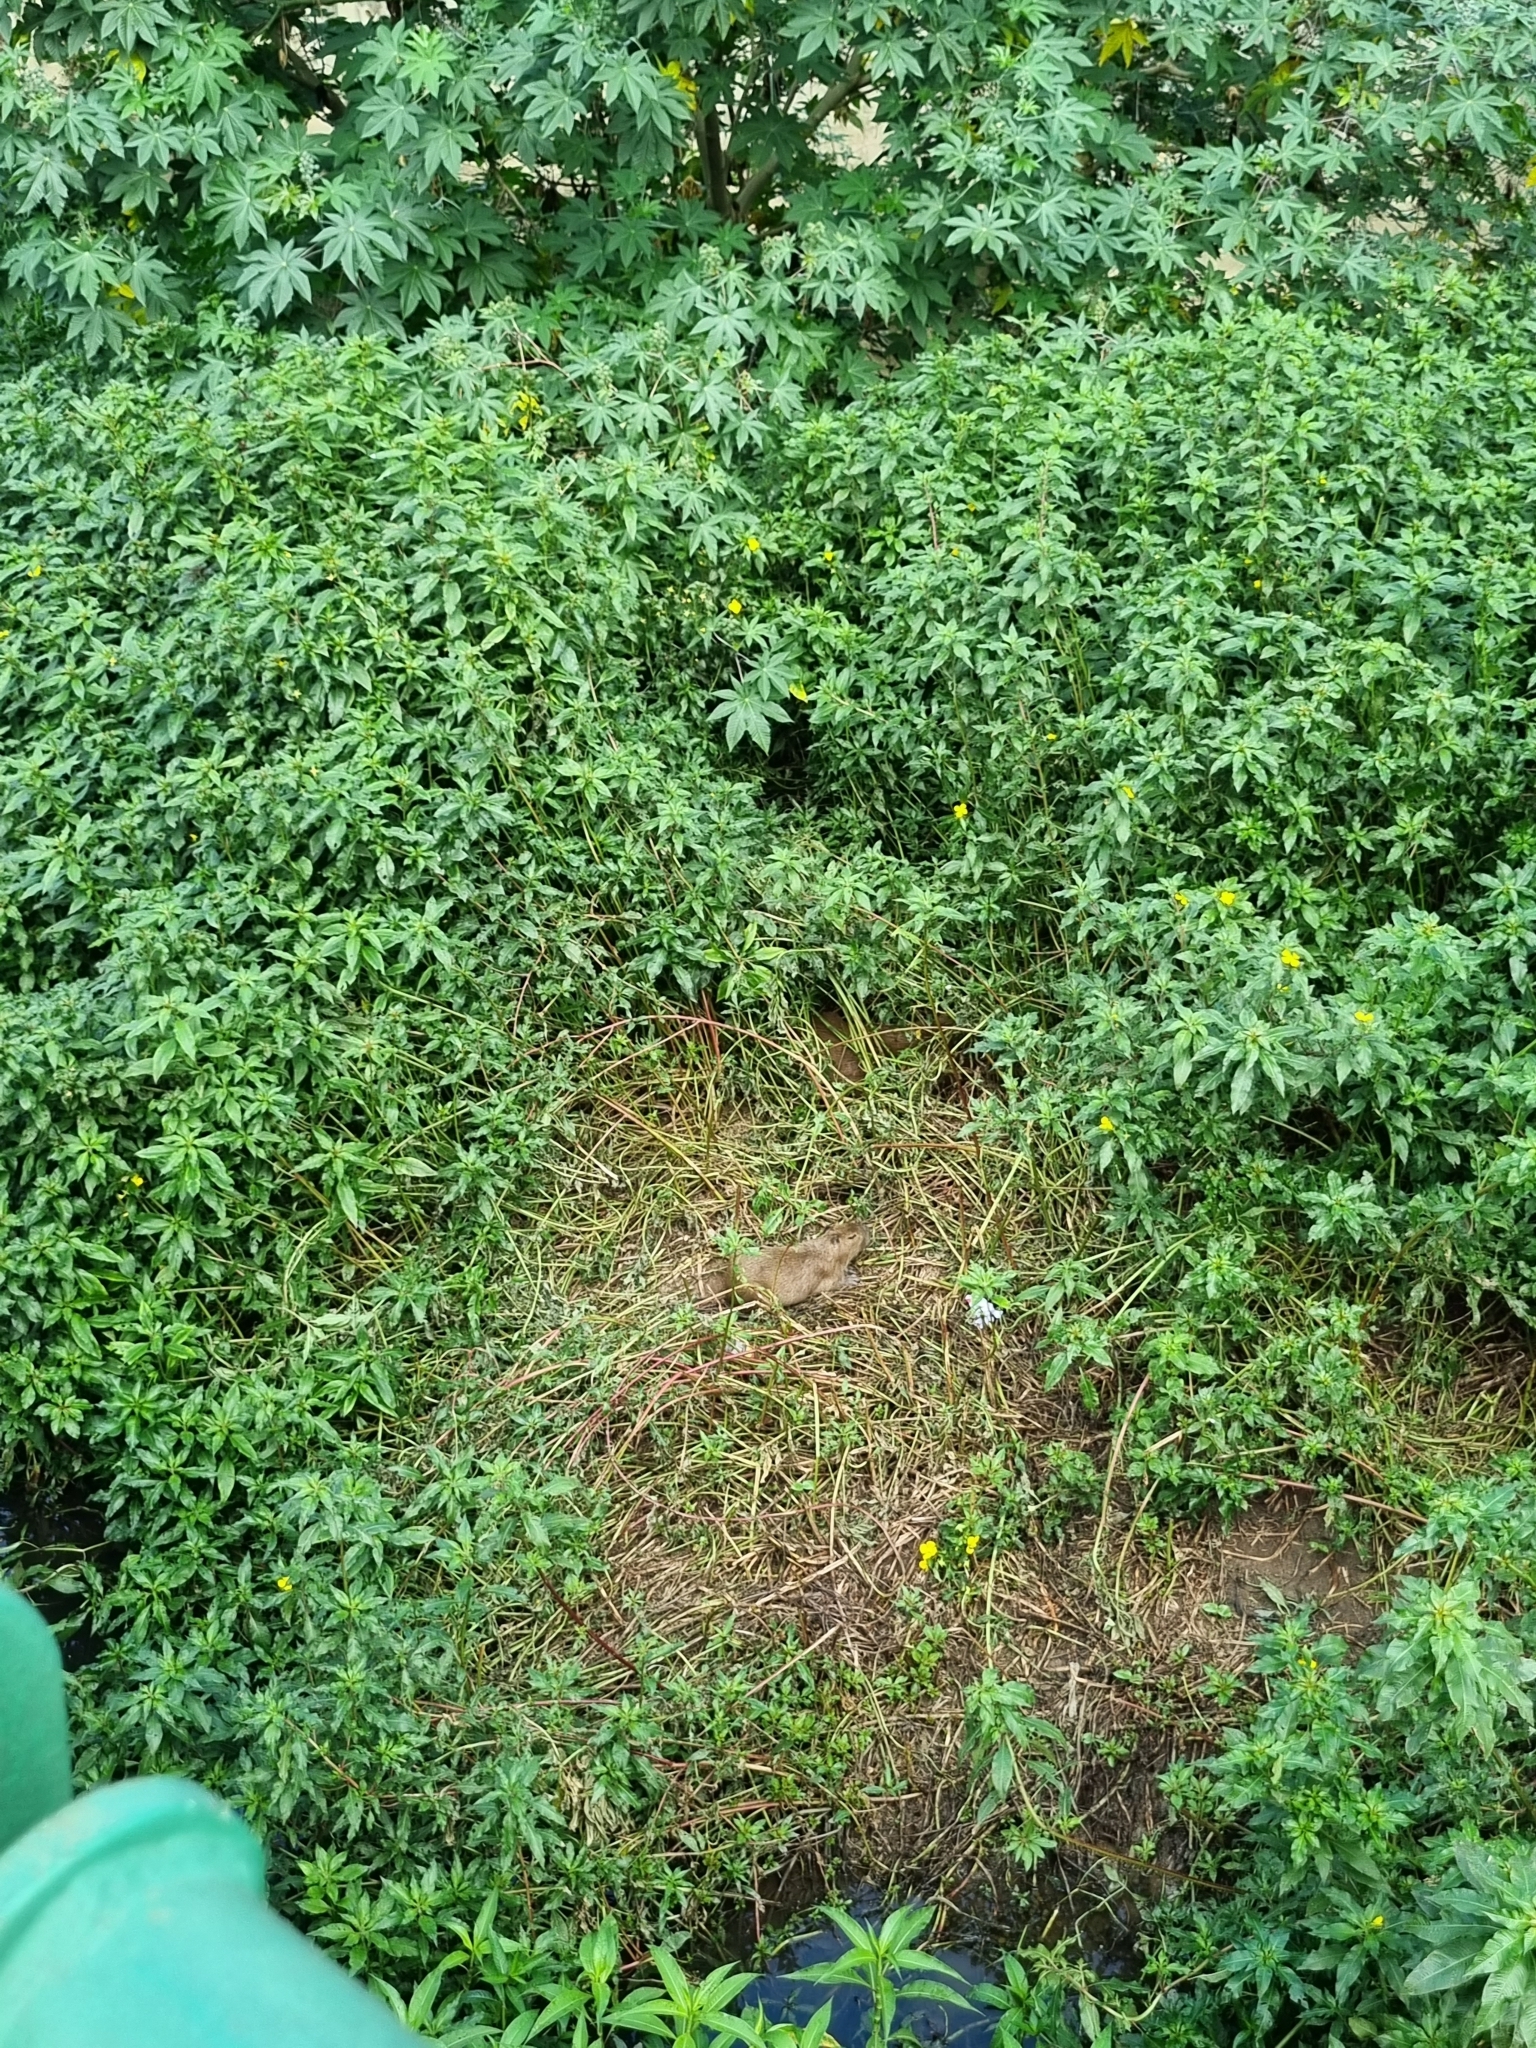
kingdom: Animalia
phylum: Chordata
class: Mammalia
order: Rodentia
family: Caviidae
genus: Hydrochoerus
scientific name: Hydrochoerus hydrochaeris
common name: Capybara
